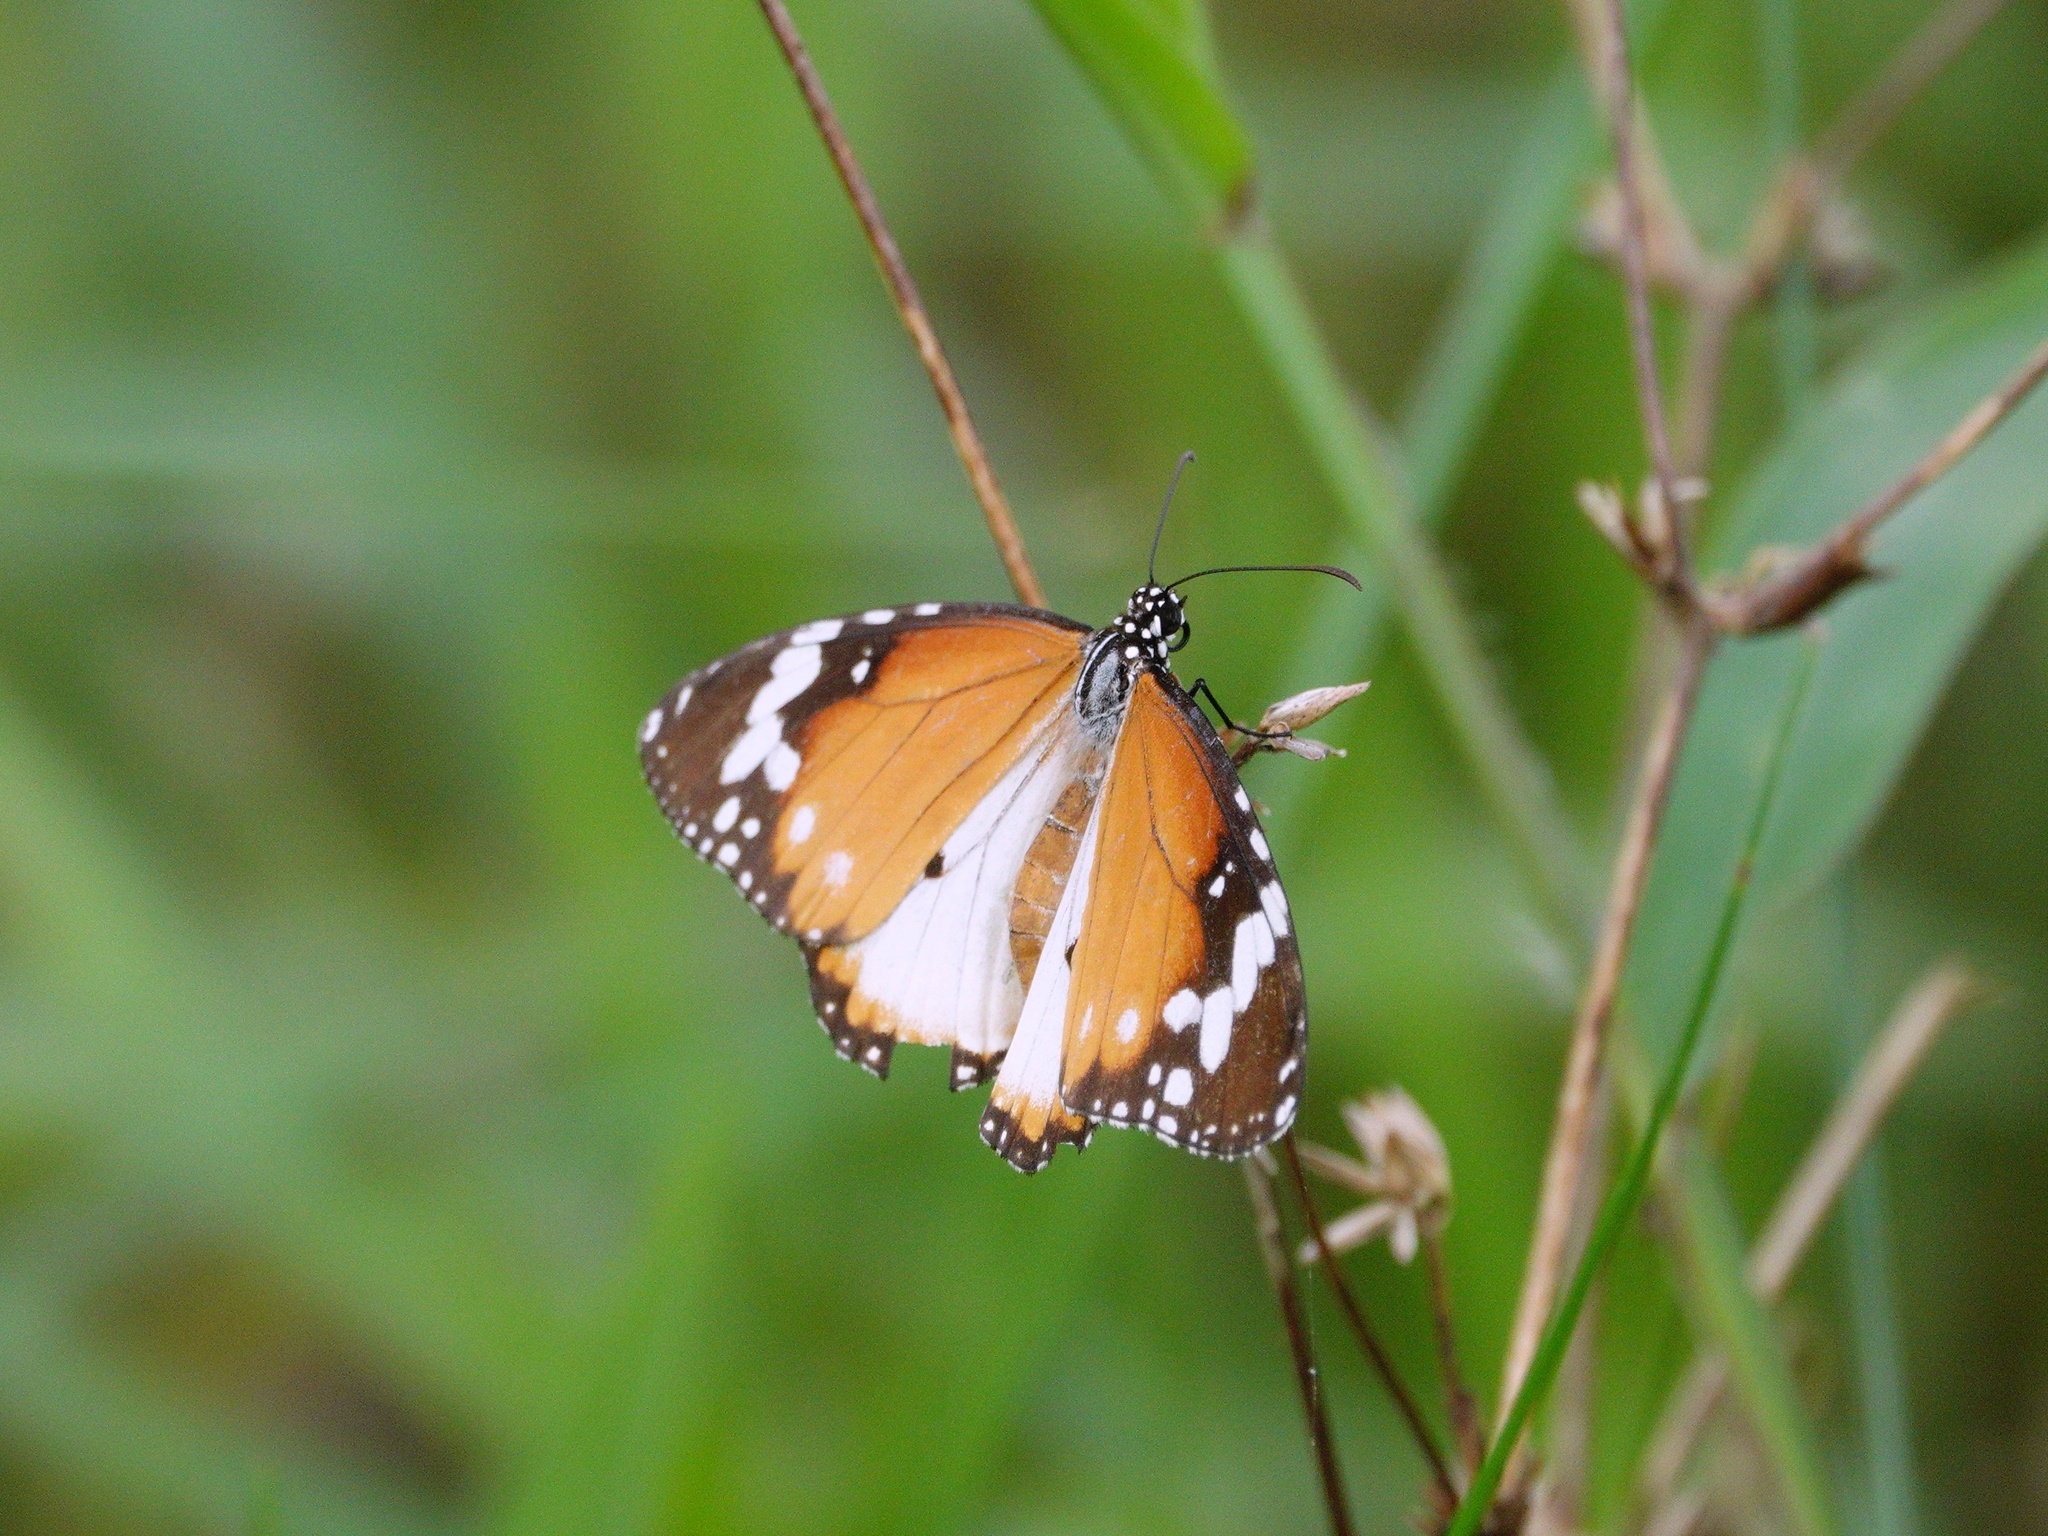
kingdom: Animalia
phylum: Arthropoda
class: Insecta
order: Lepidoptera
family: Nymphalidae
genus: Danaus
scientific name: Danaus chrysippus
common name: Plain tiger
